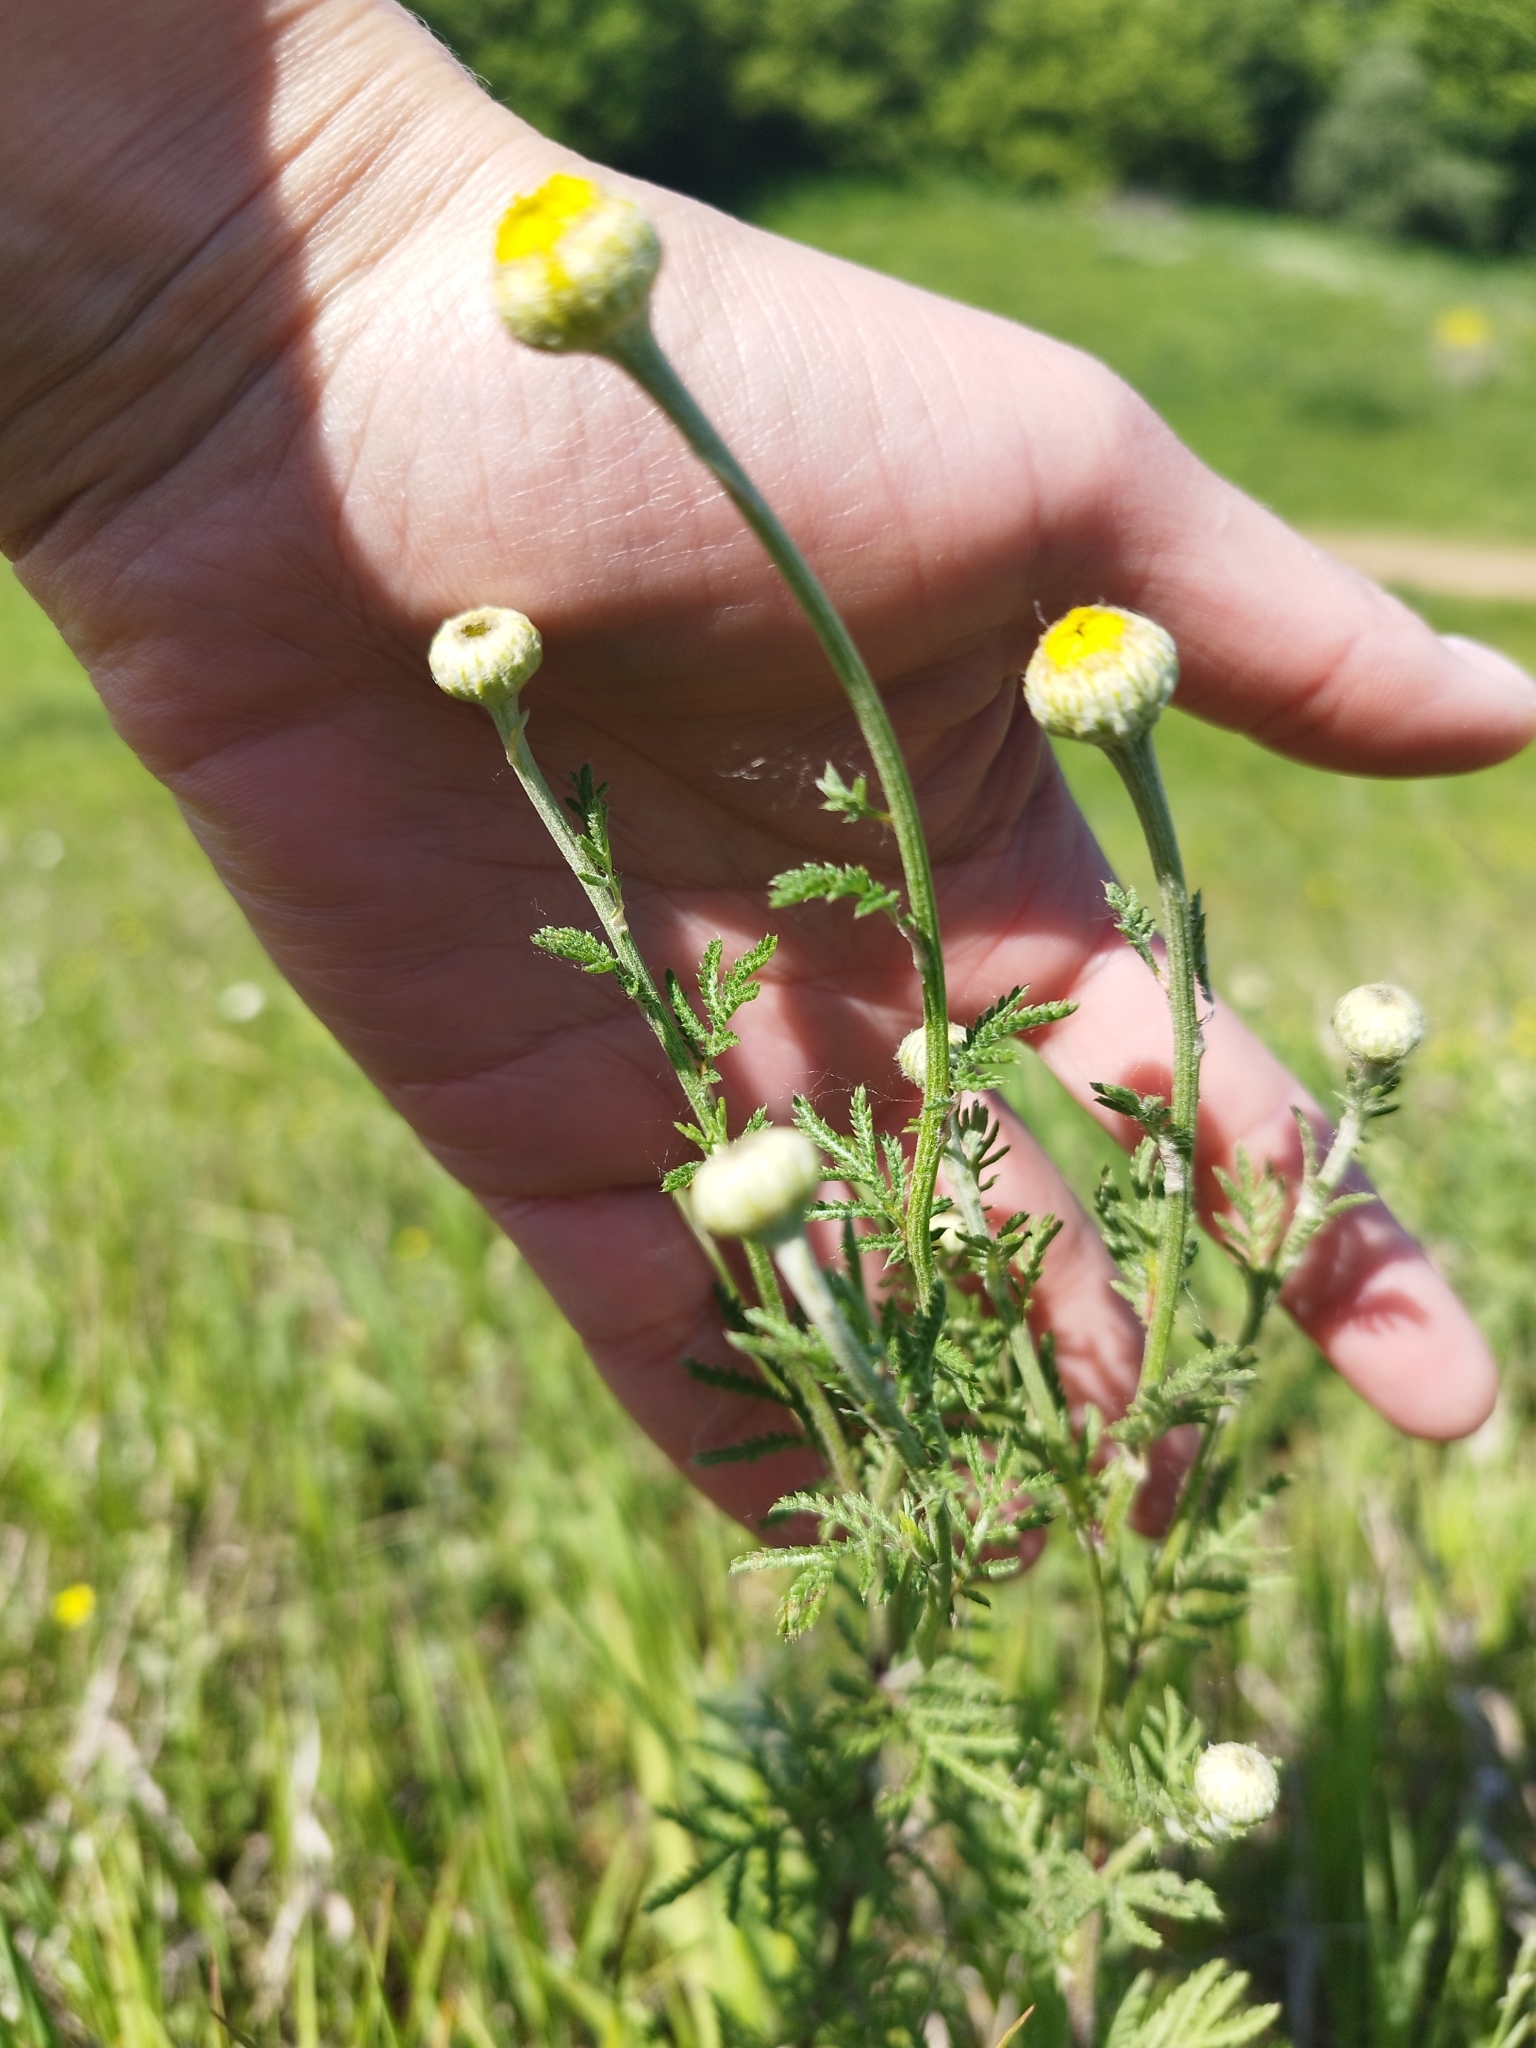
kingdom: Plantae
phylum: Tracheophyta
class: Magnoliopsida
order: Asterales
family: Asteraceae
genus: Cota
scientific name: Cota tinctoria
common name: Golden chamomile
